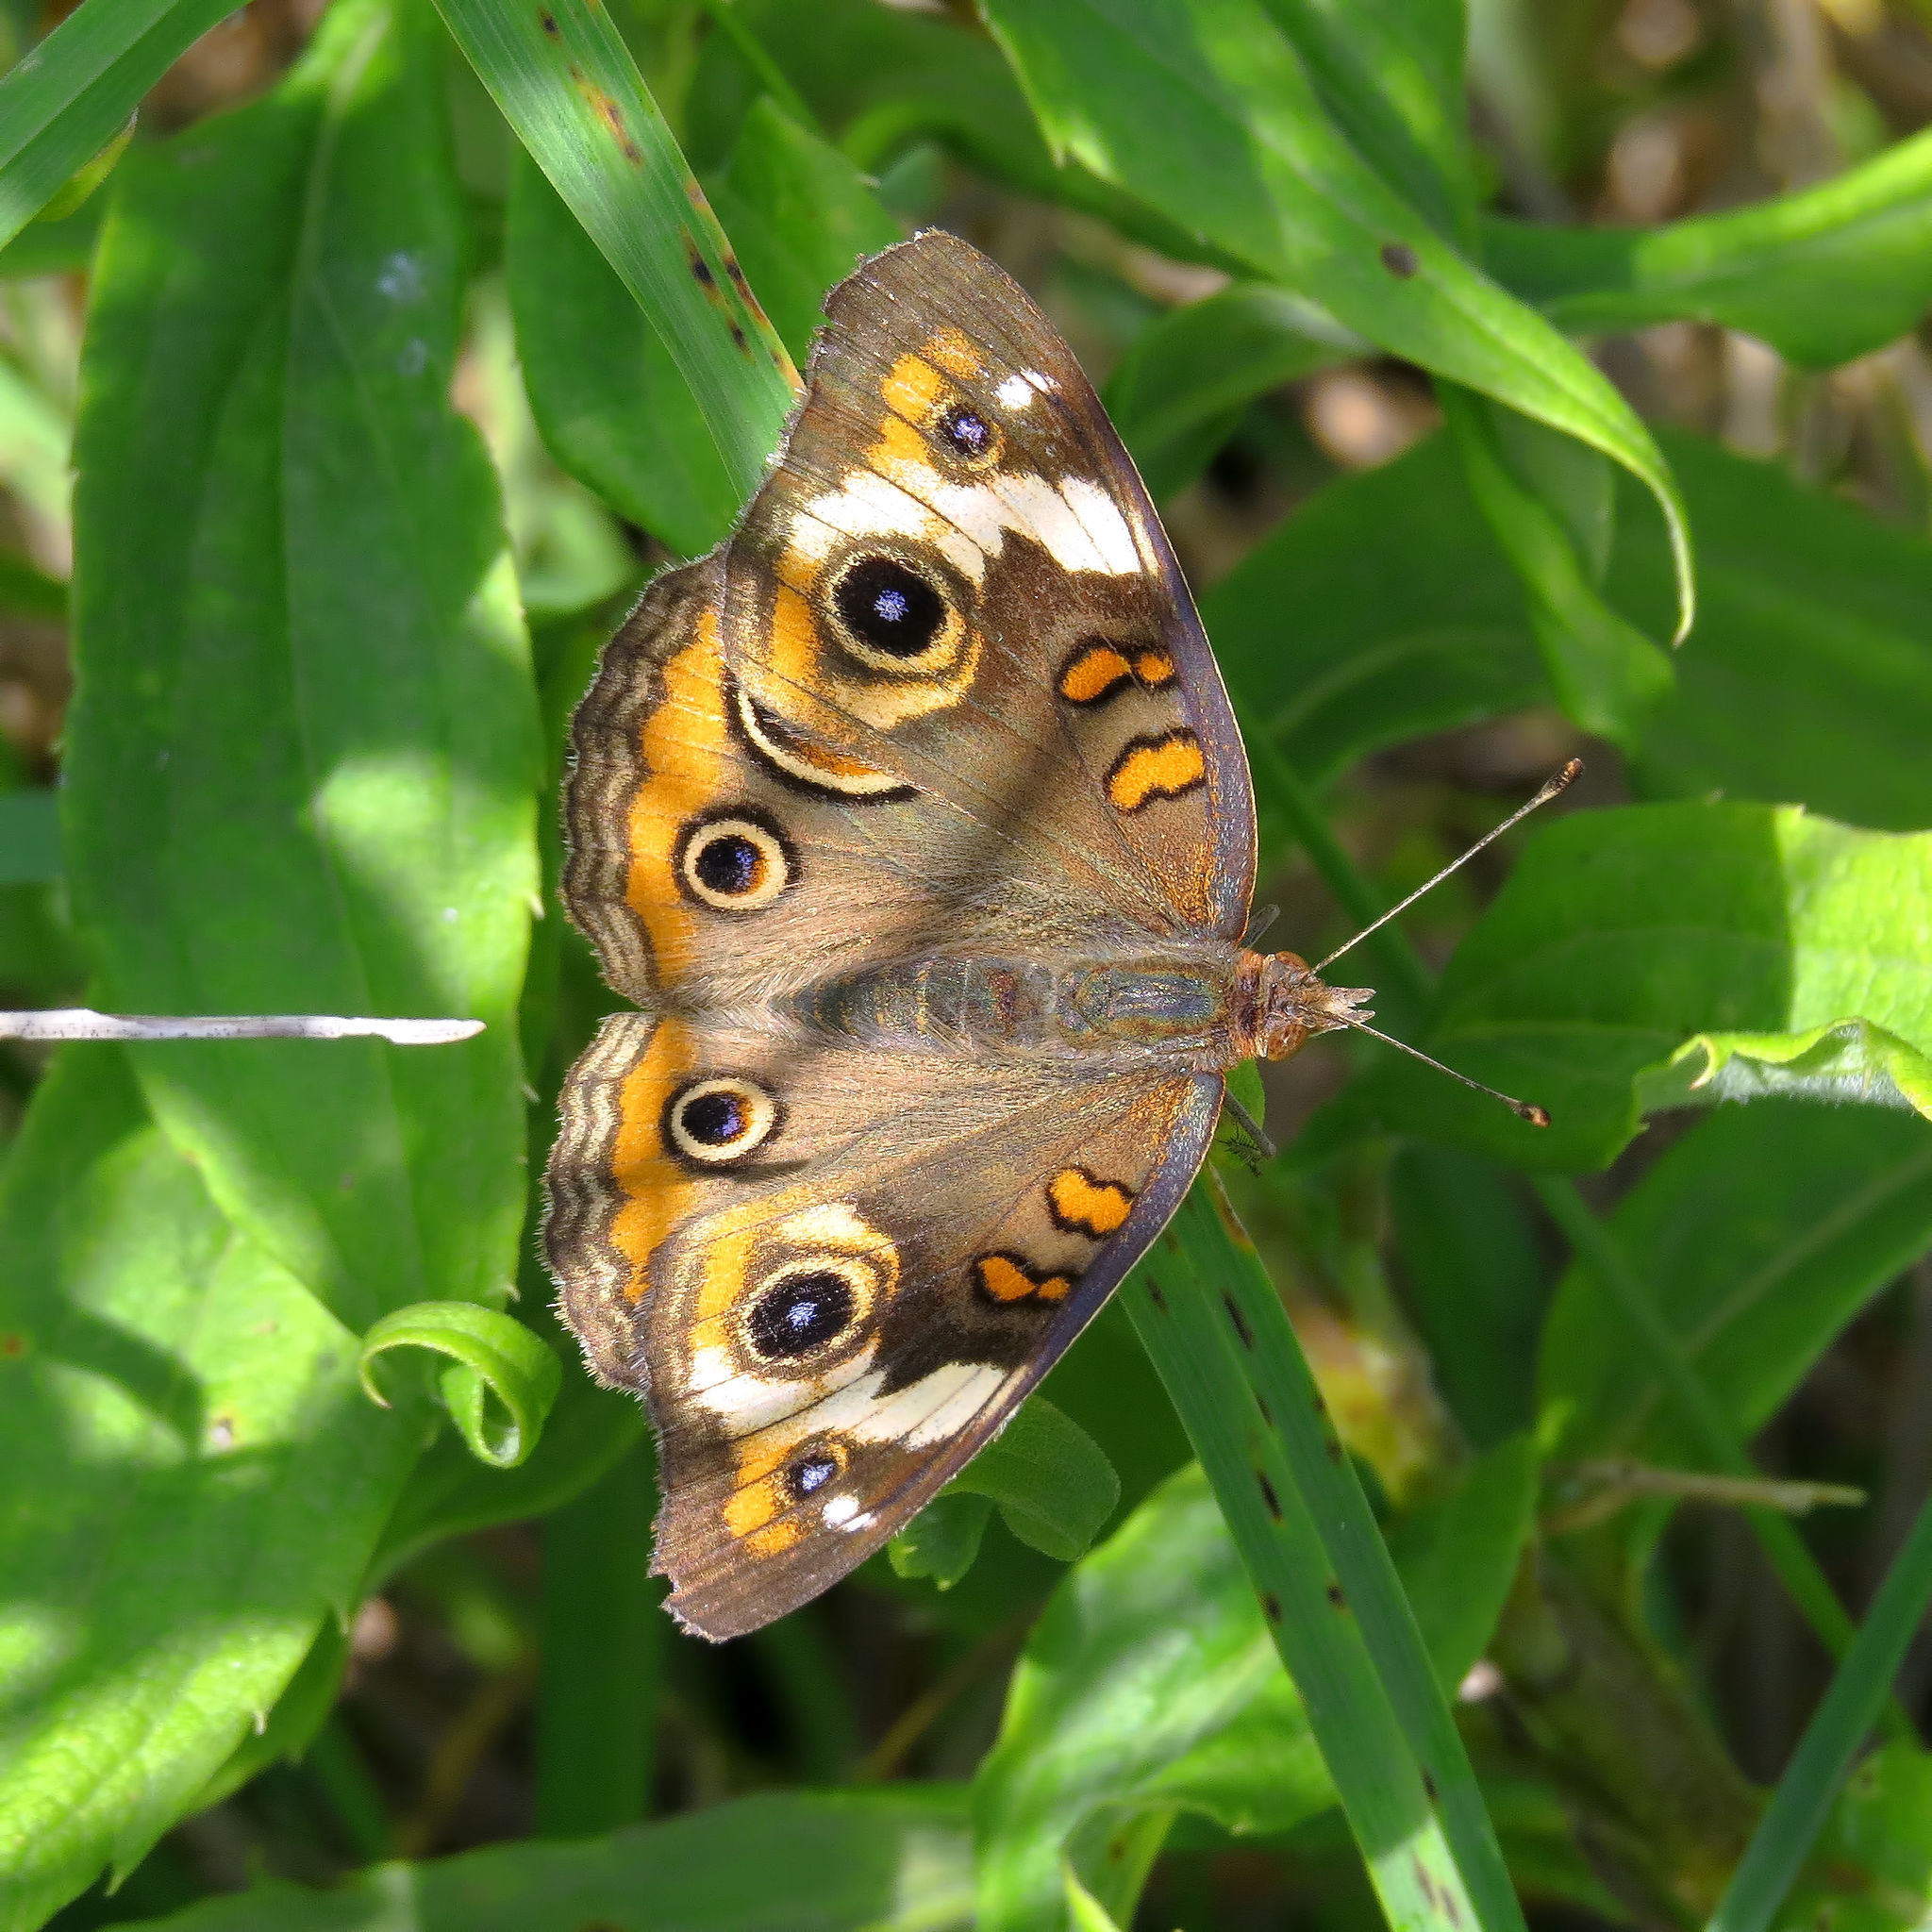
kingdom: Animalia
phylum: Arthropoda
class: Insecta
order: Lepidoptera
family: Nymphalidae
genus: Junonia
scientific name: Junonia coenia
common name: Common buckeye
